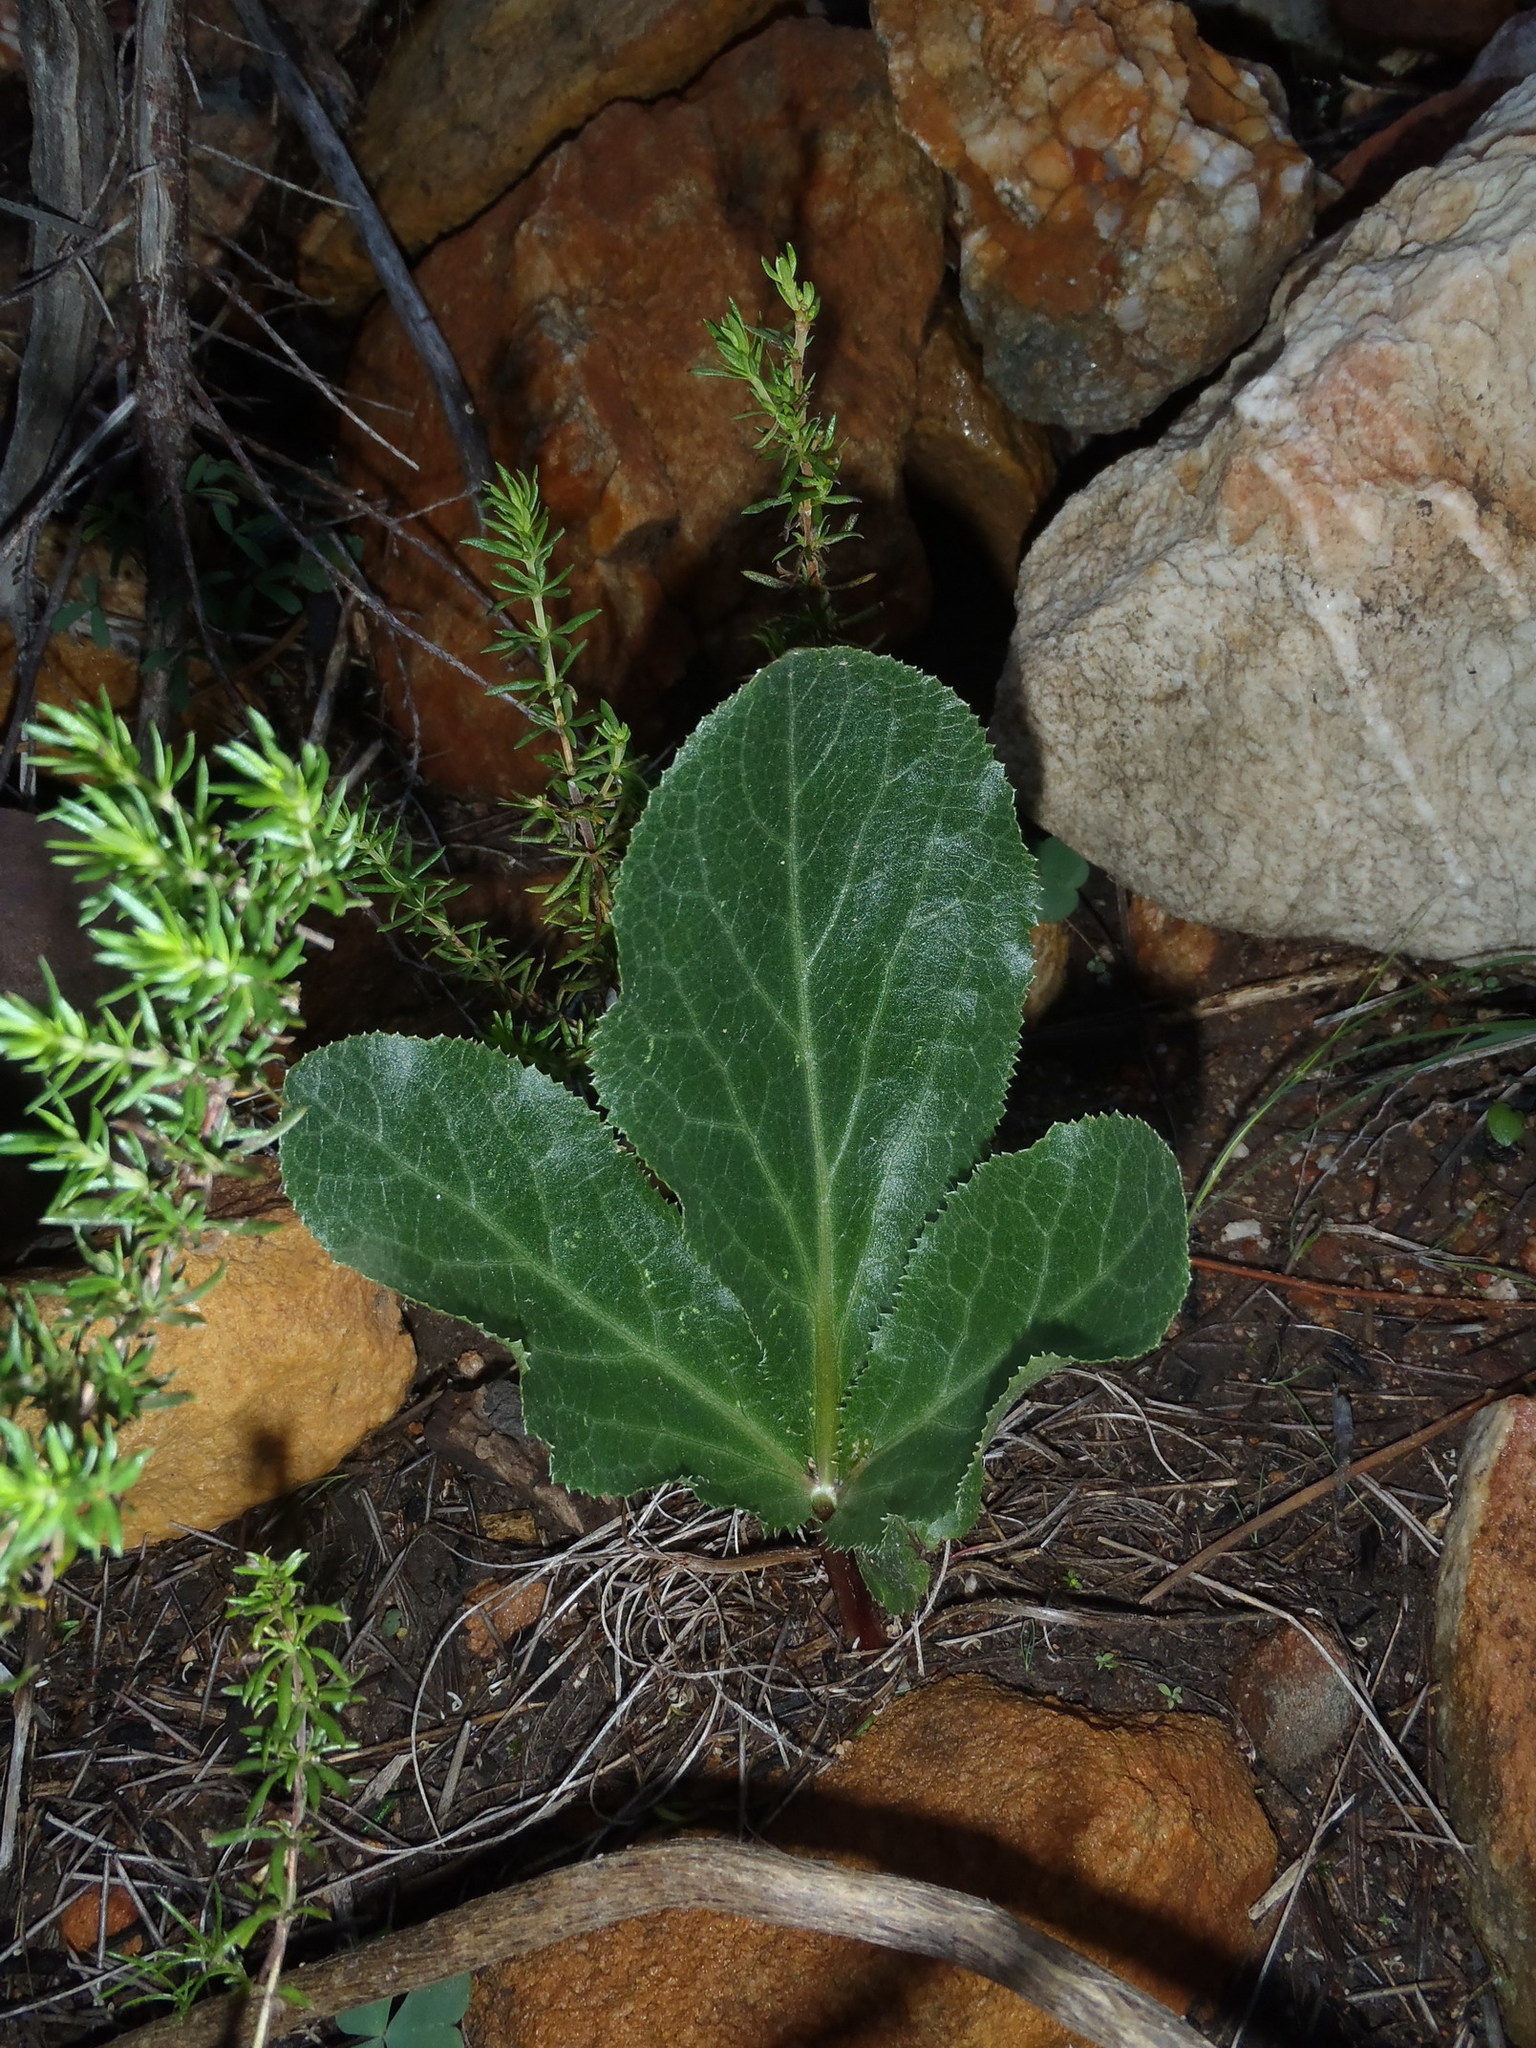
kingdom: Plantae
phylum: Tracheophyta
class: Magnoliopsida
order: Apiales
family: Apiaceae
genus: Lichtensteinia
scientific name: Lichtensteinia trifida
